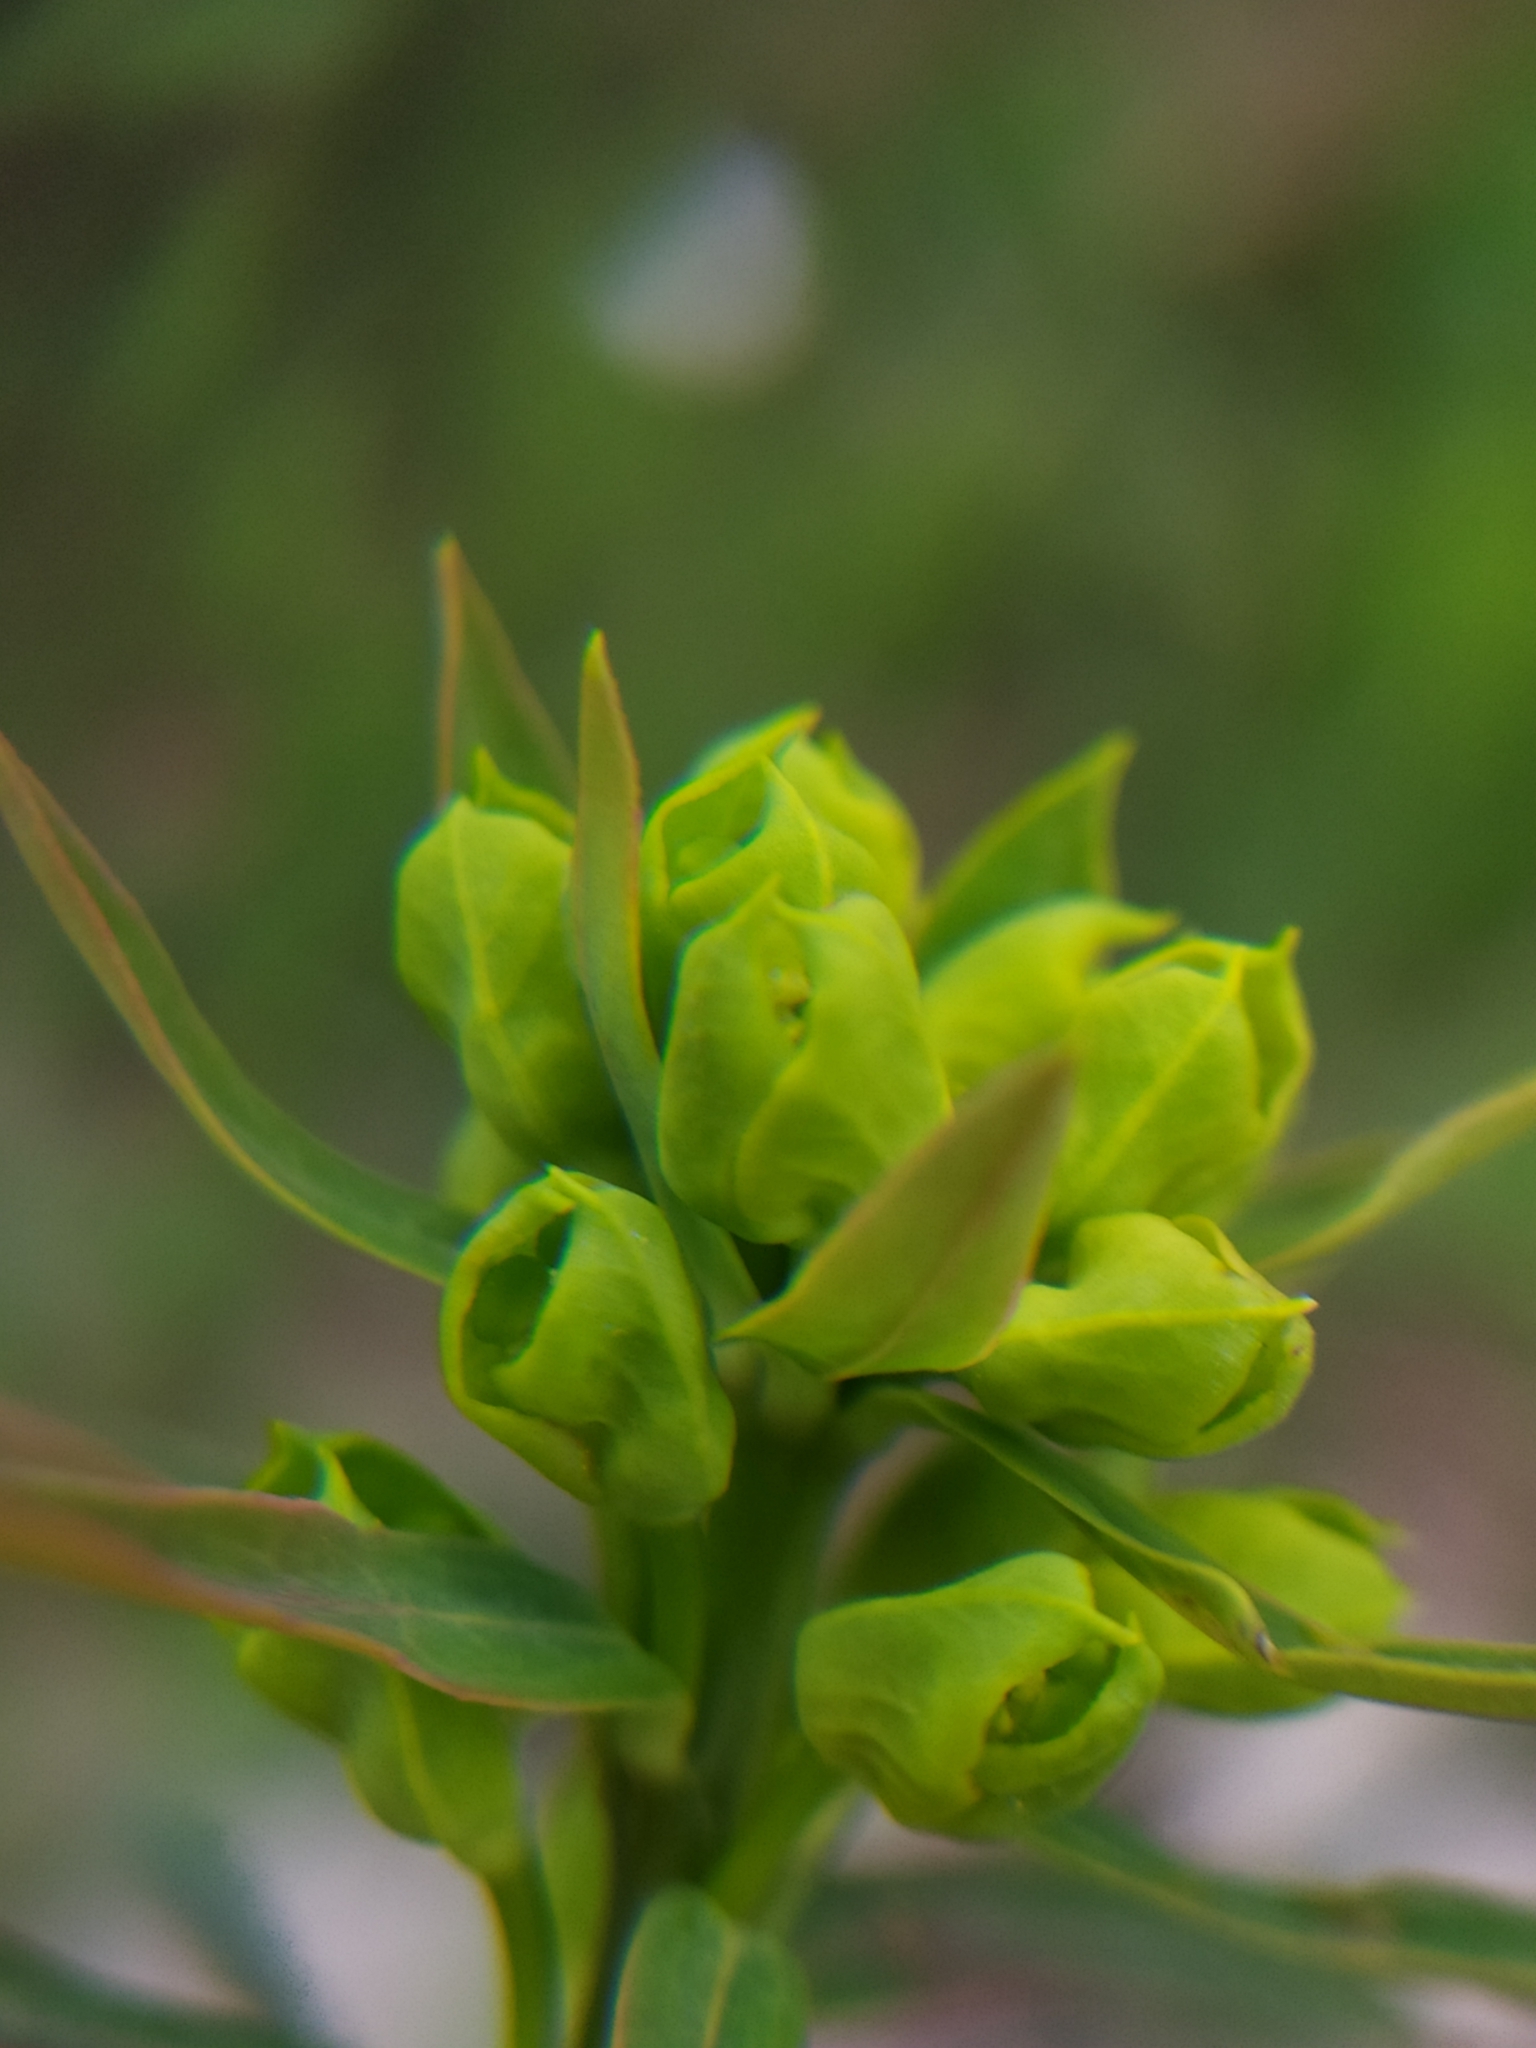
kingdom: Plantae
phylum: Tracheophyta
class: Magnoliopsida
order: Malpighiales
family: Euphorbiaceae
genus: Euphorbia
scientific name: Euphorbia esula
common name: Leafy spurge
